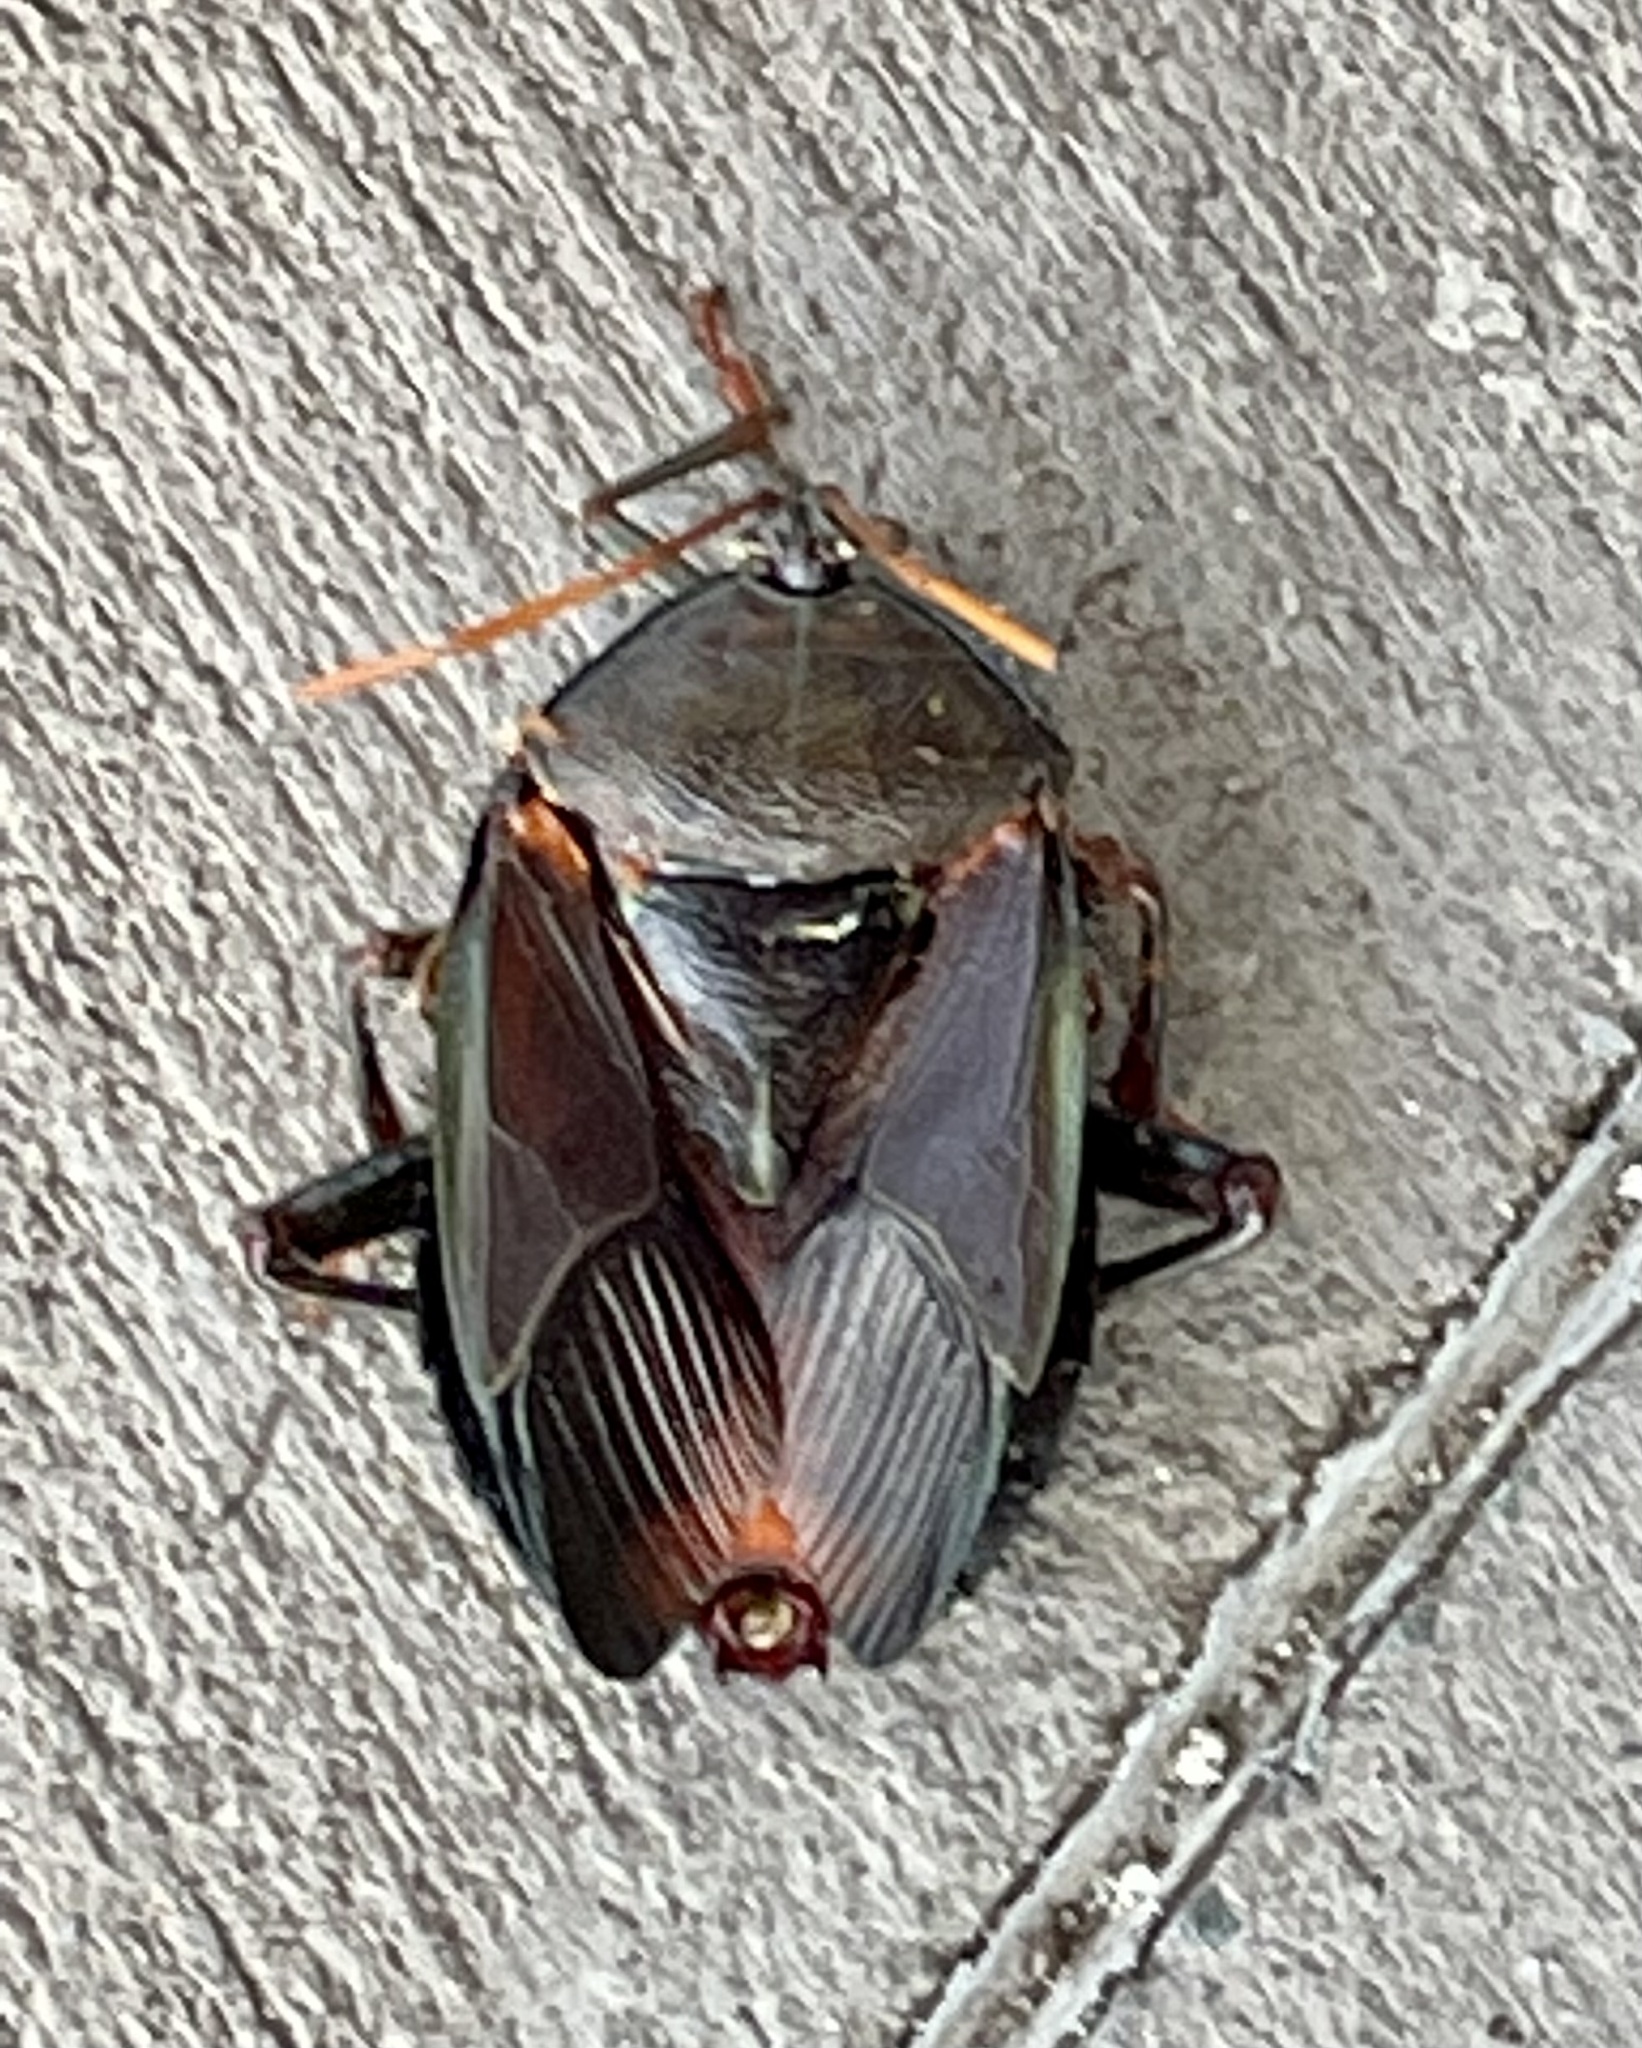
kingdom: Animalia
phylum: Arthropoda
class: Insecta
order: Hemiptera
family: Tessaratomidae
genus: Musgraveia
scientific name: Musgraveia sulciventris
